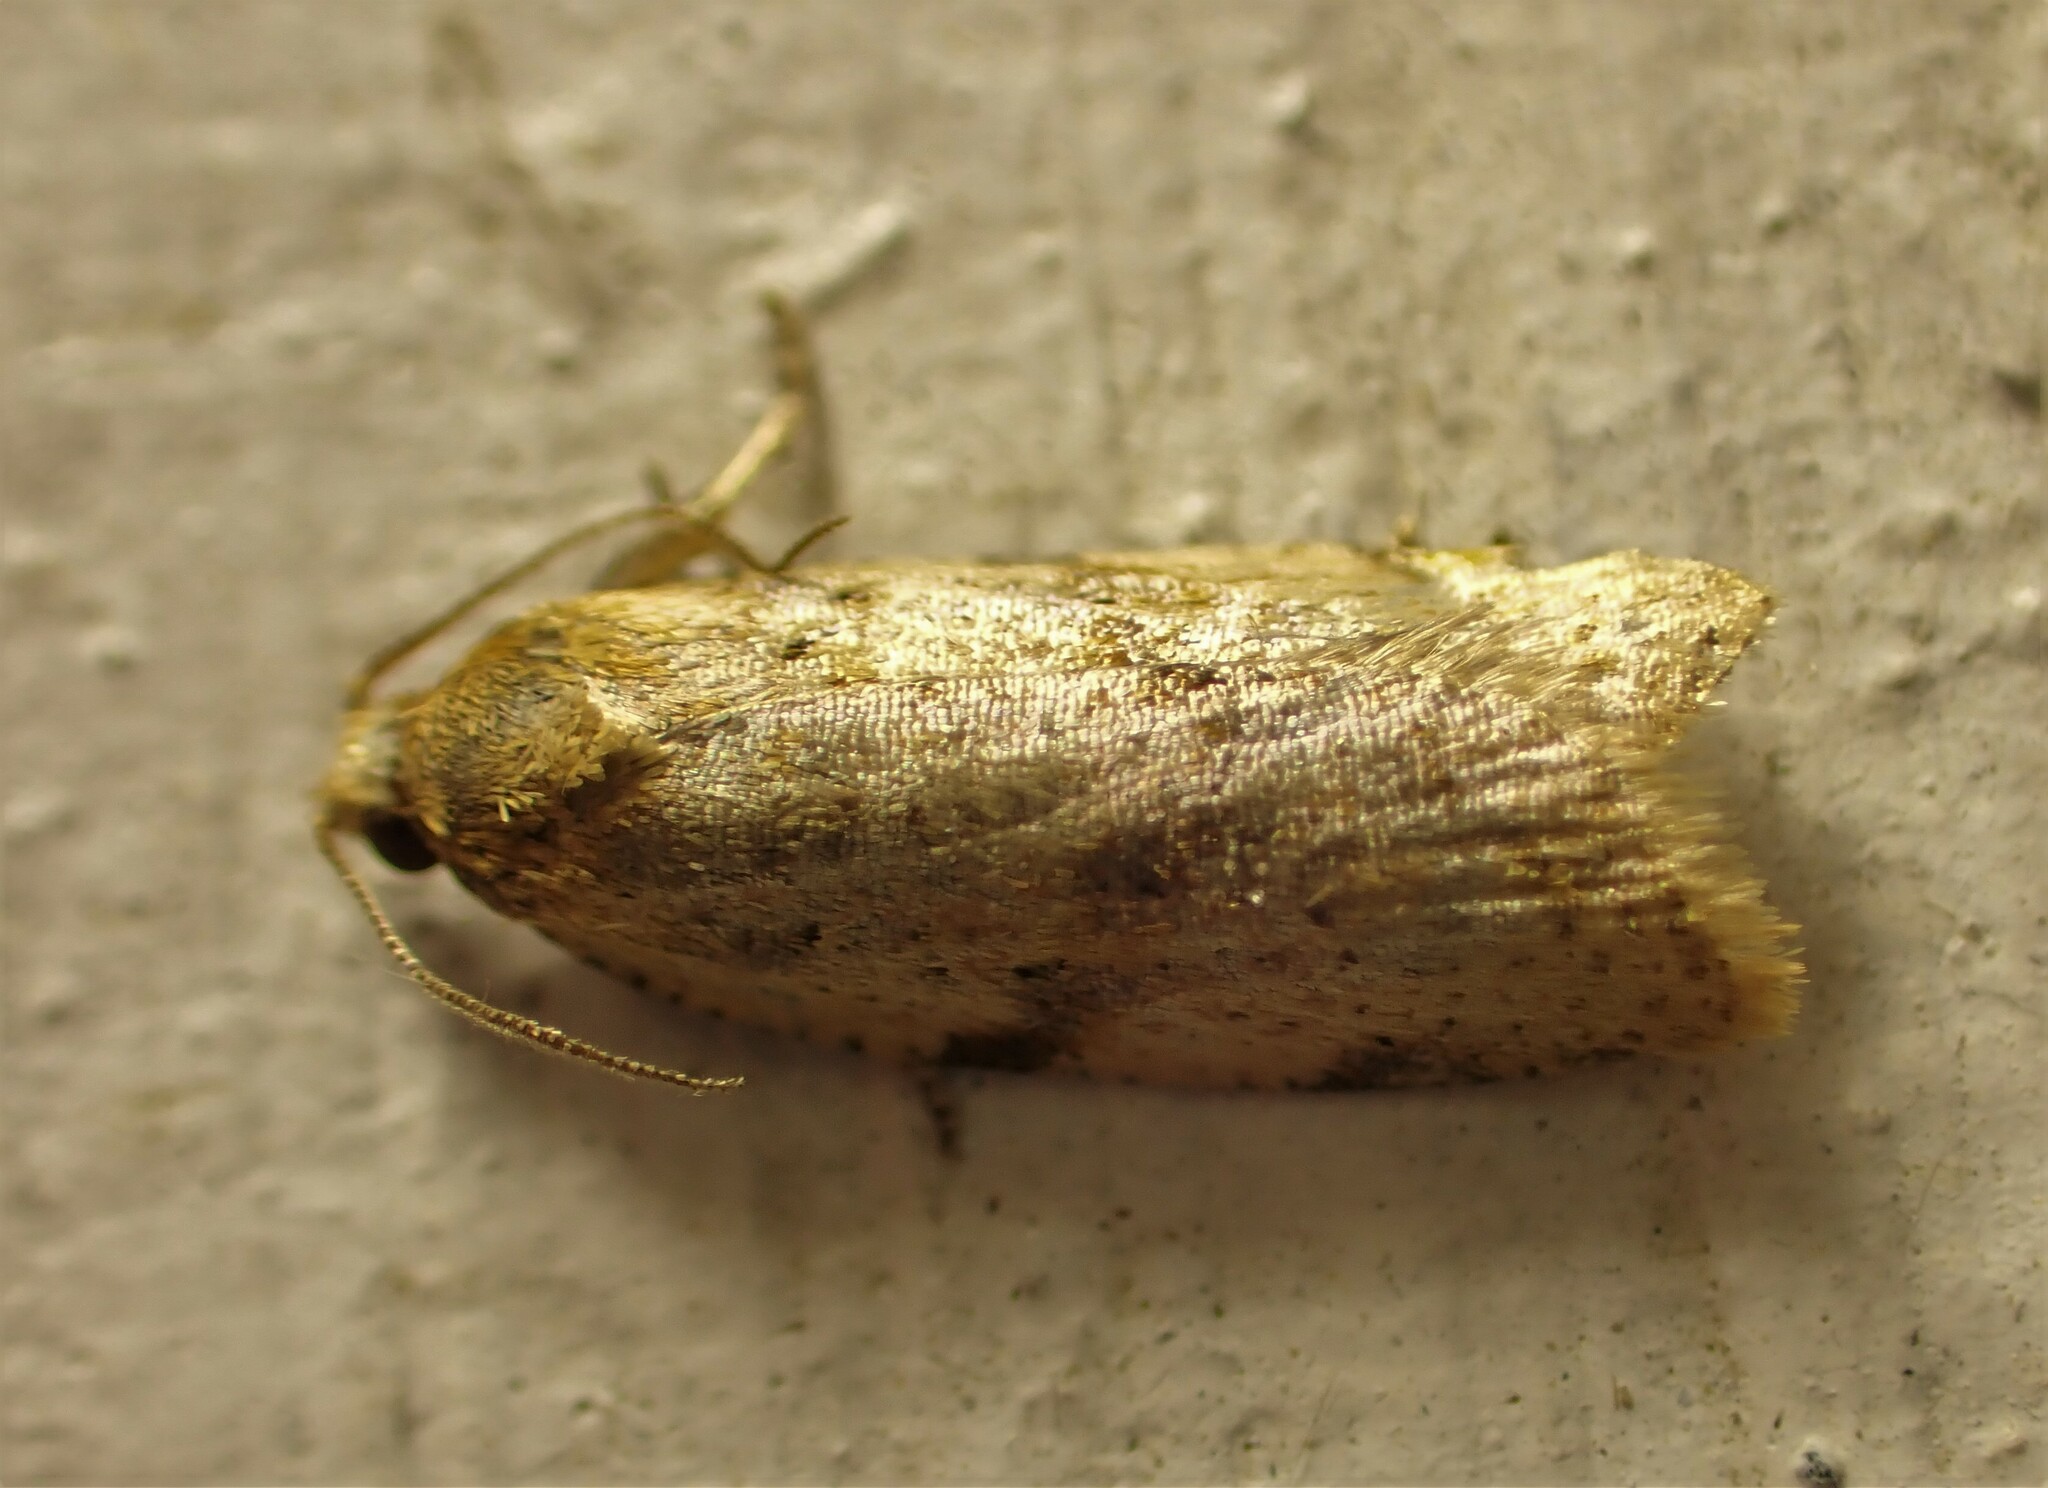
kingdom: Animalia
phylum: Arthropoda
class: Insecta
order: Lepidoptera
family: Tortricidae
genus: Clepsis
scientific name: Clepsis
